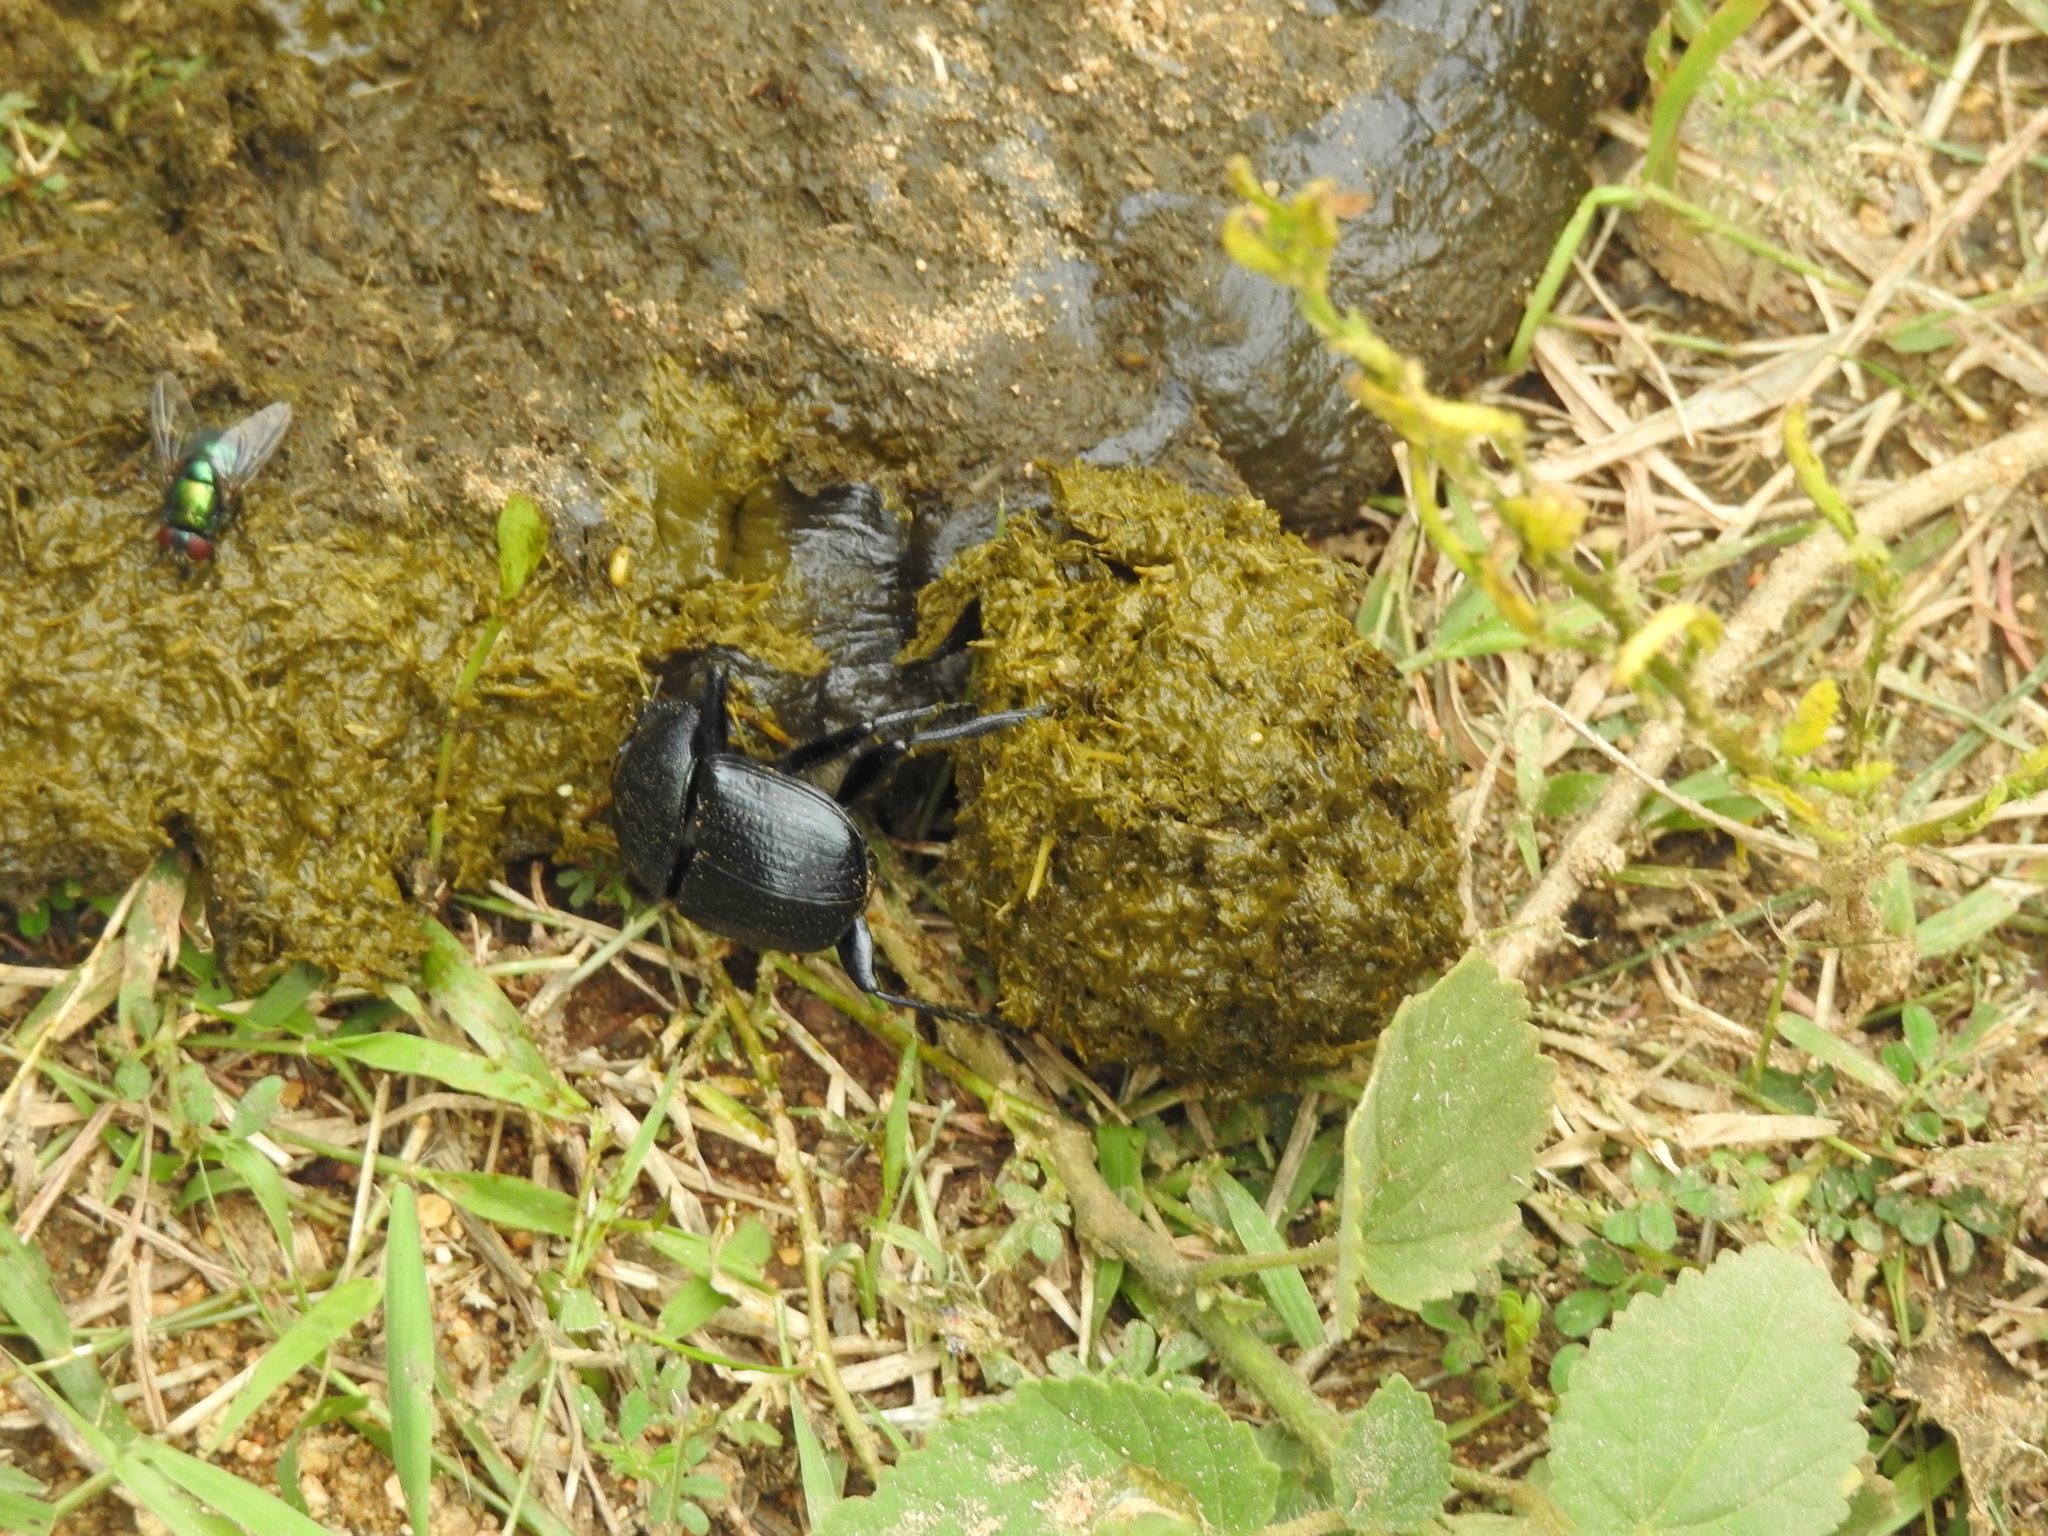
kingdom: Animalia
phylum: Arthropoda
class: Insecta
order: Coleoptera
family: Scarabaeidae
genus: Kheper
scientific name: Kheper erichsoni
